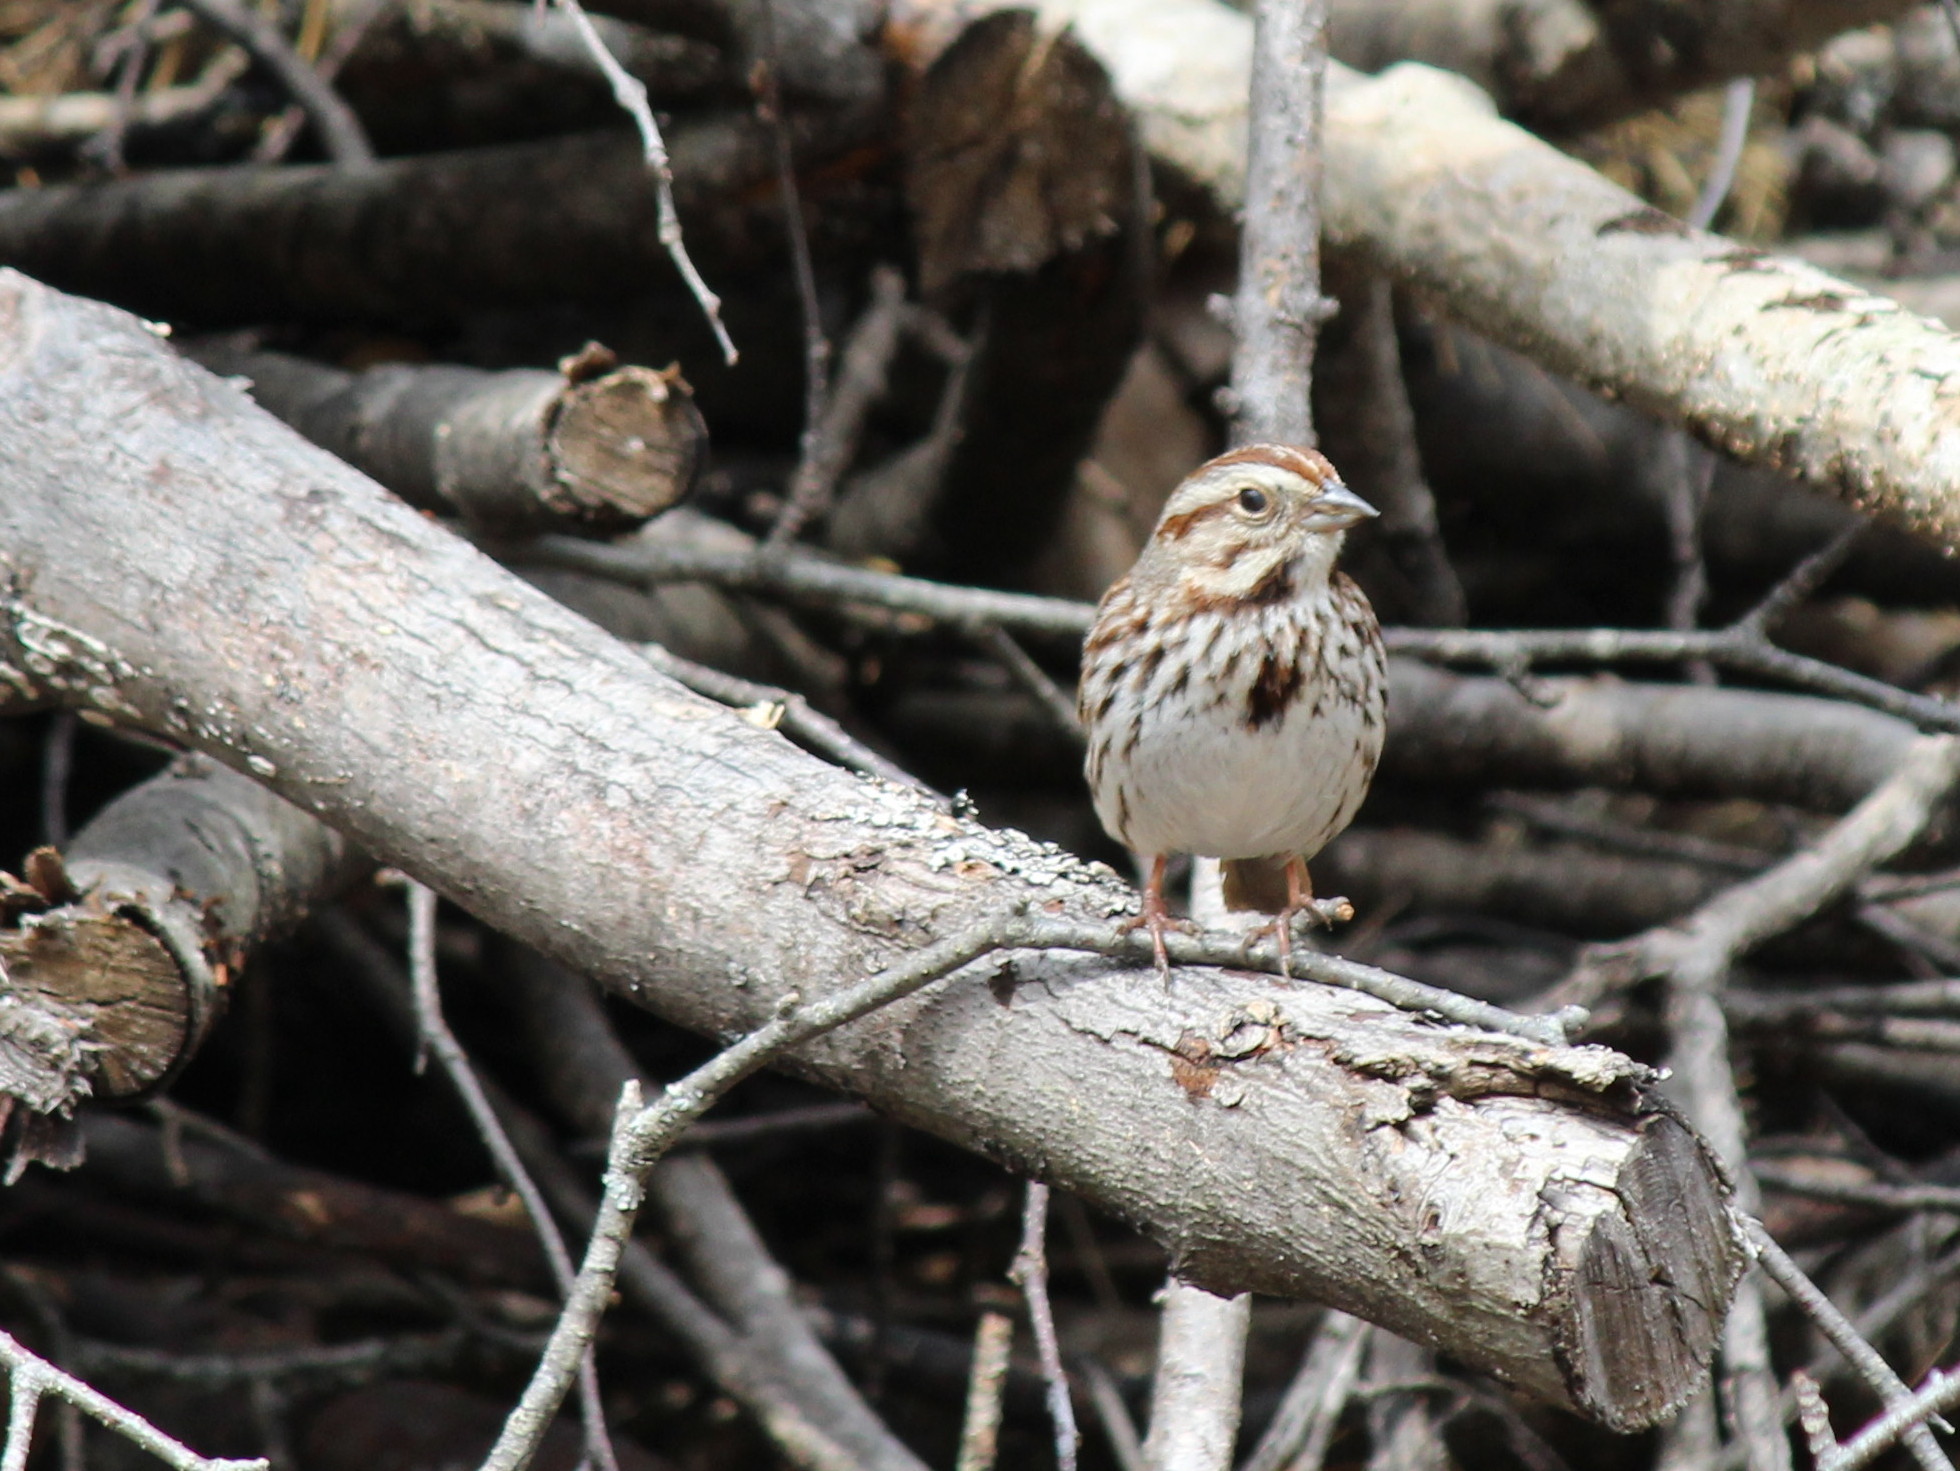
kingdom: Animalia
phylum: Chordata
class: Aves
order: Passeriformes
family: Passerellidae
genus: Melospiza
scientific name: Melospiza melodia
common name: Song sparrow
